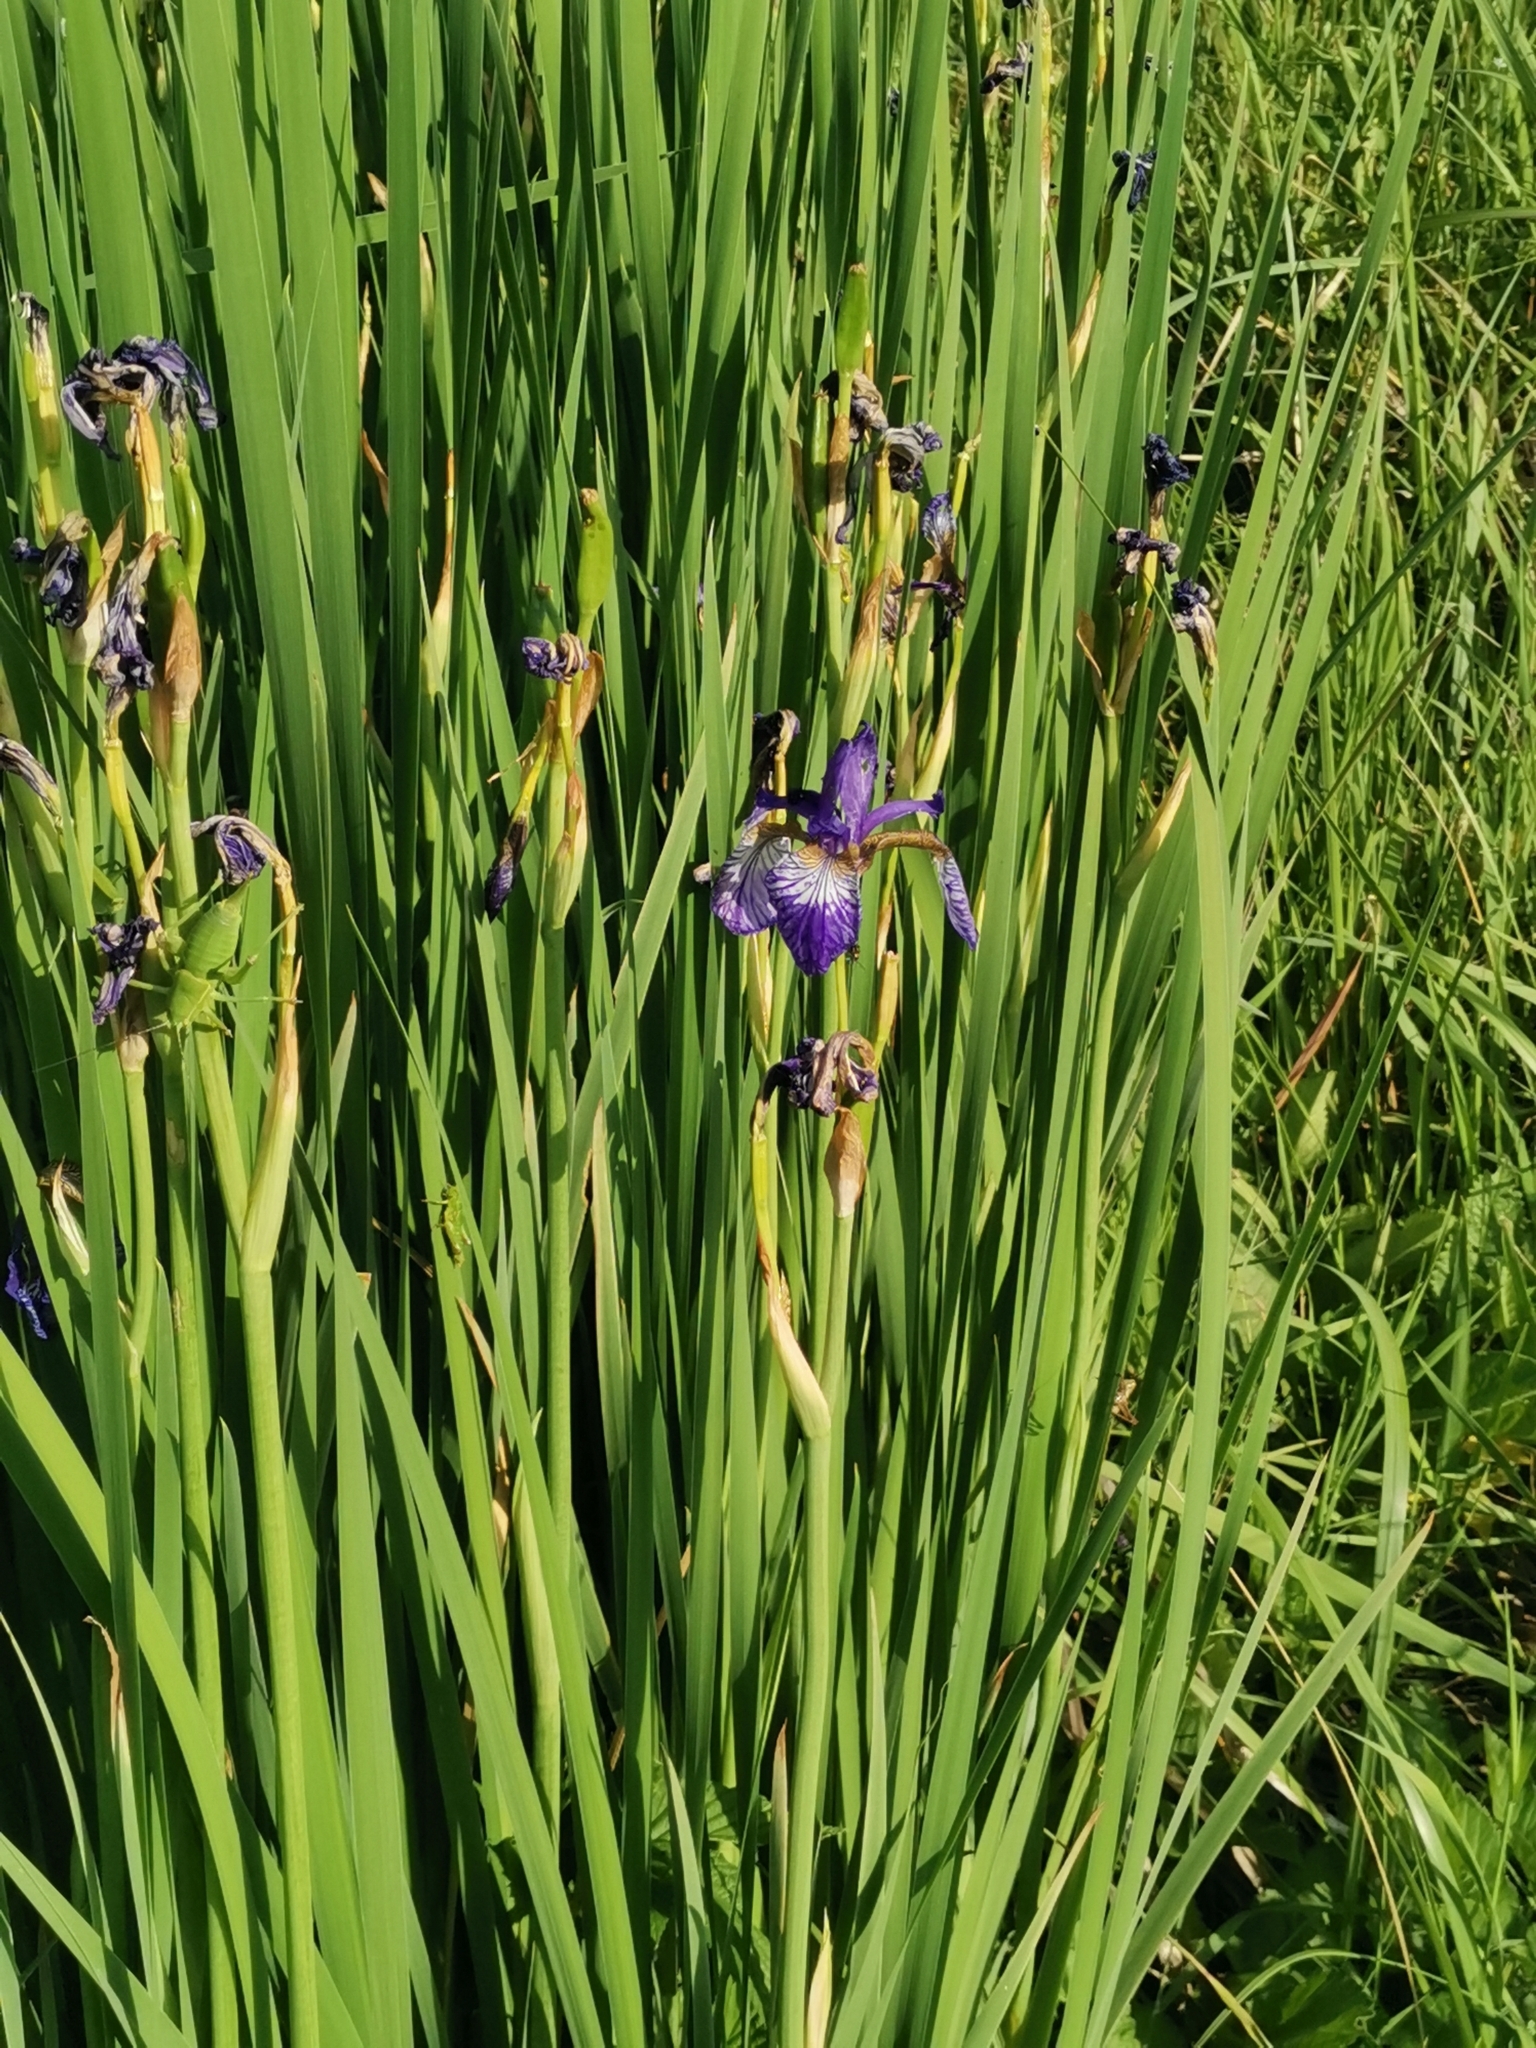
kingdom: Plantae
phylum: Tracheophyta
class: Liliopsida
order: Asparagales
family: Iridaceae
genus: Iris
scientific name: Iris sibirica
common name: Siberian iris
